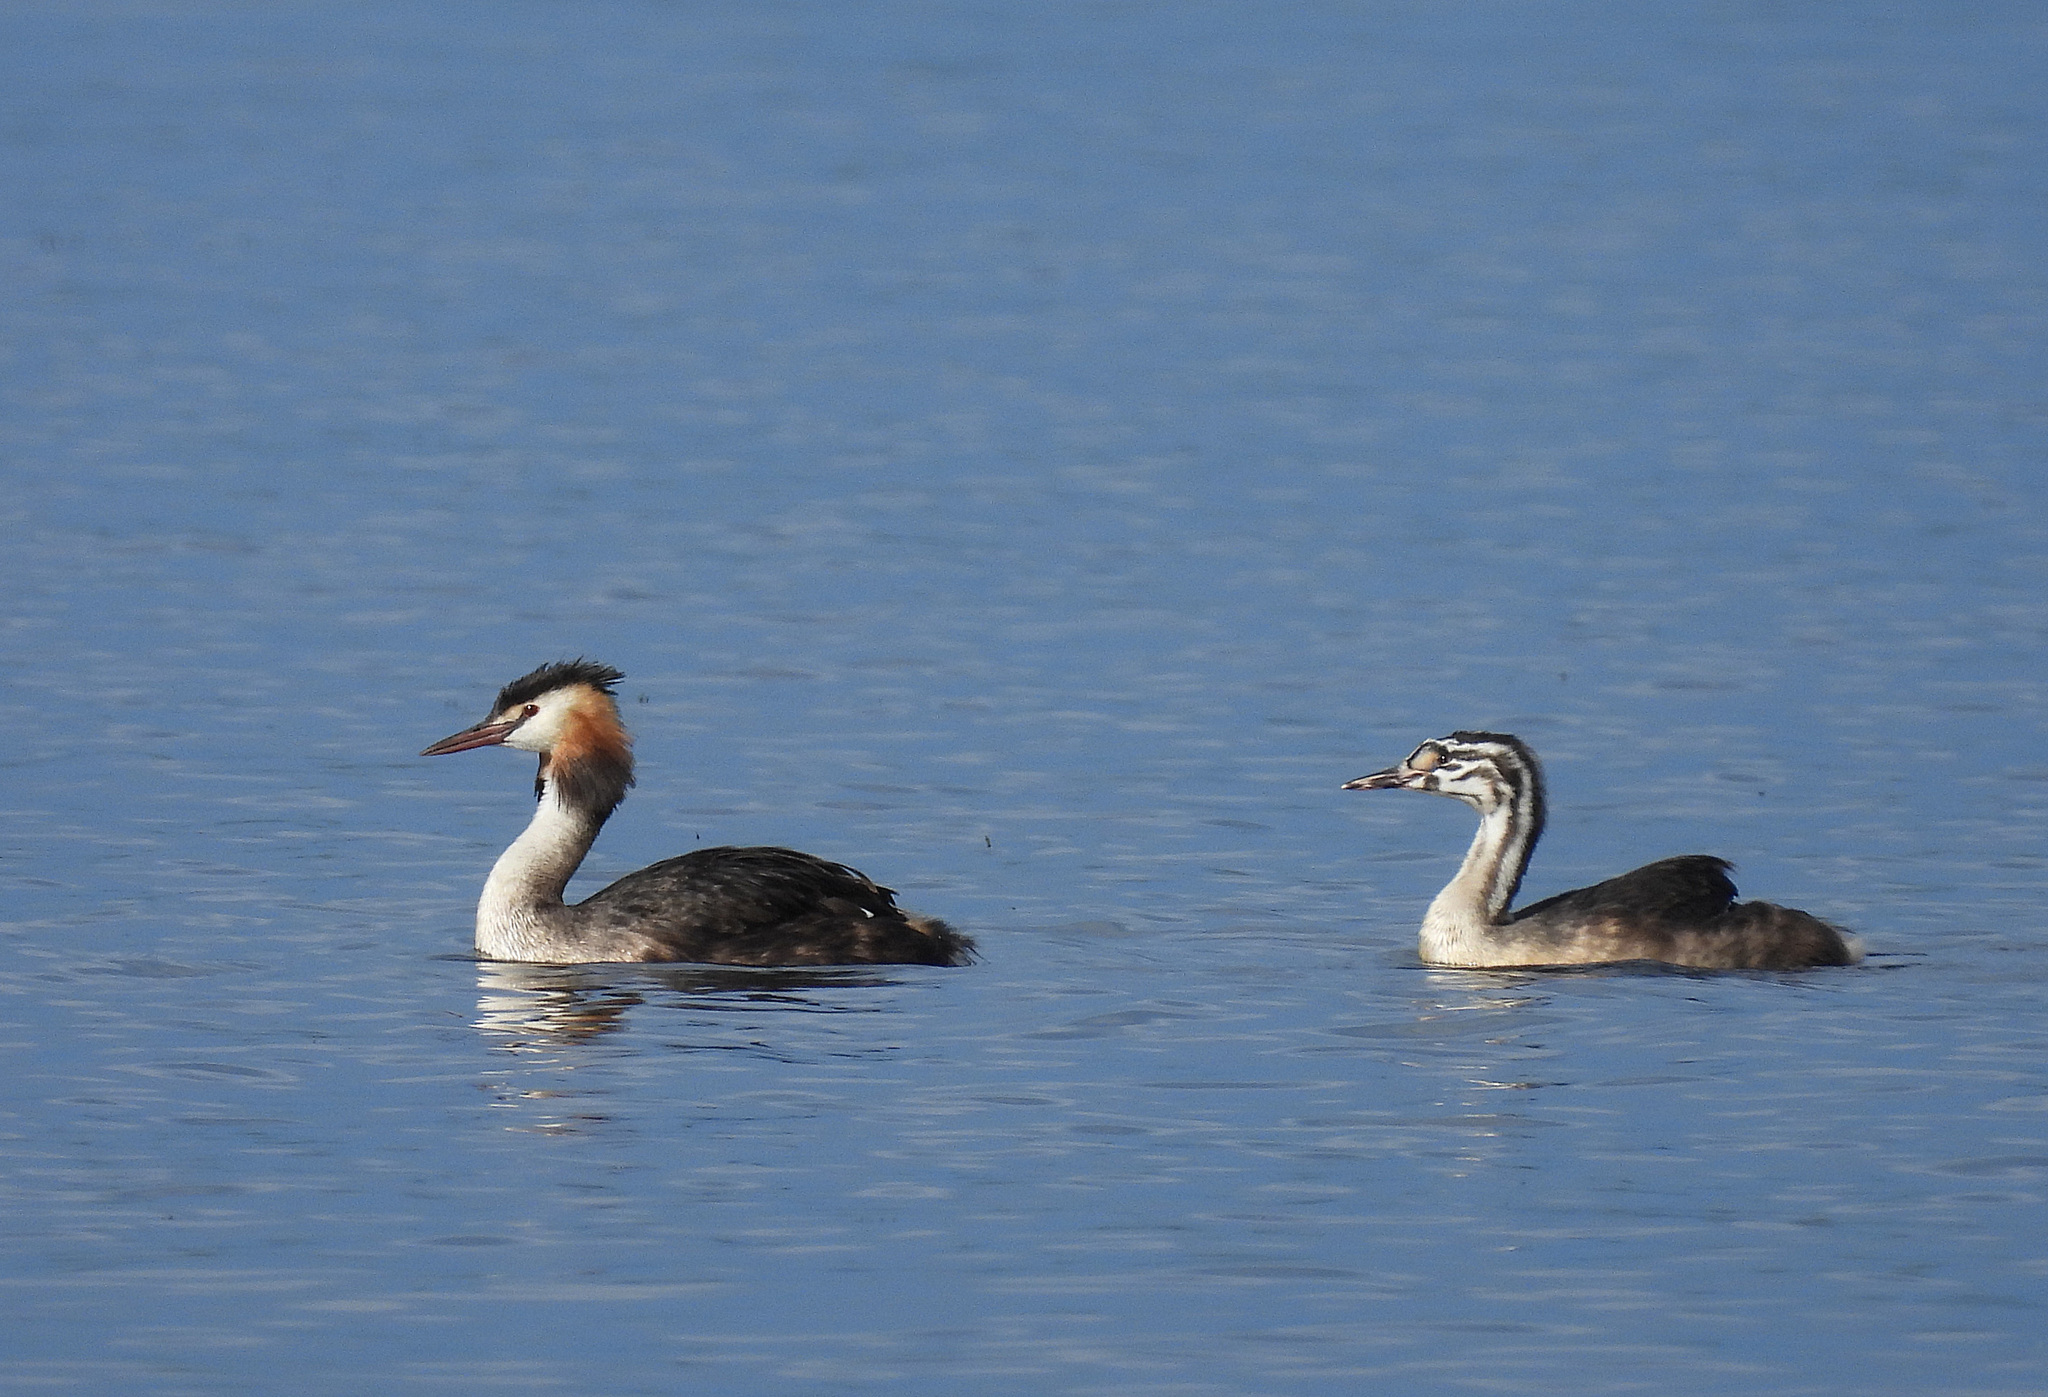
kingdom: Animalia
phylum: Chordata
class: Aves
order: Podicipediformes
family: Podicipedidae
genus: Podiceps
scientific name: Podiceps cristatus
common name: Great crested grebe
